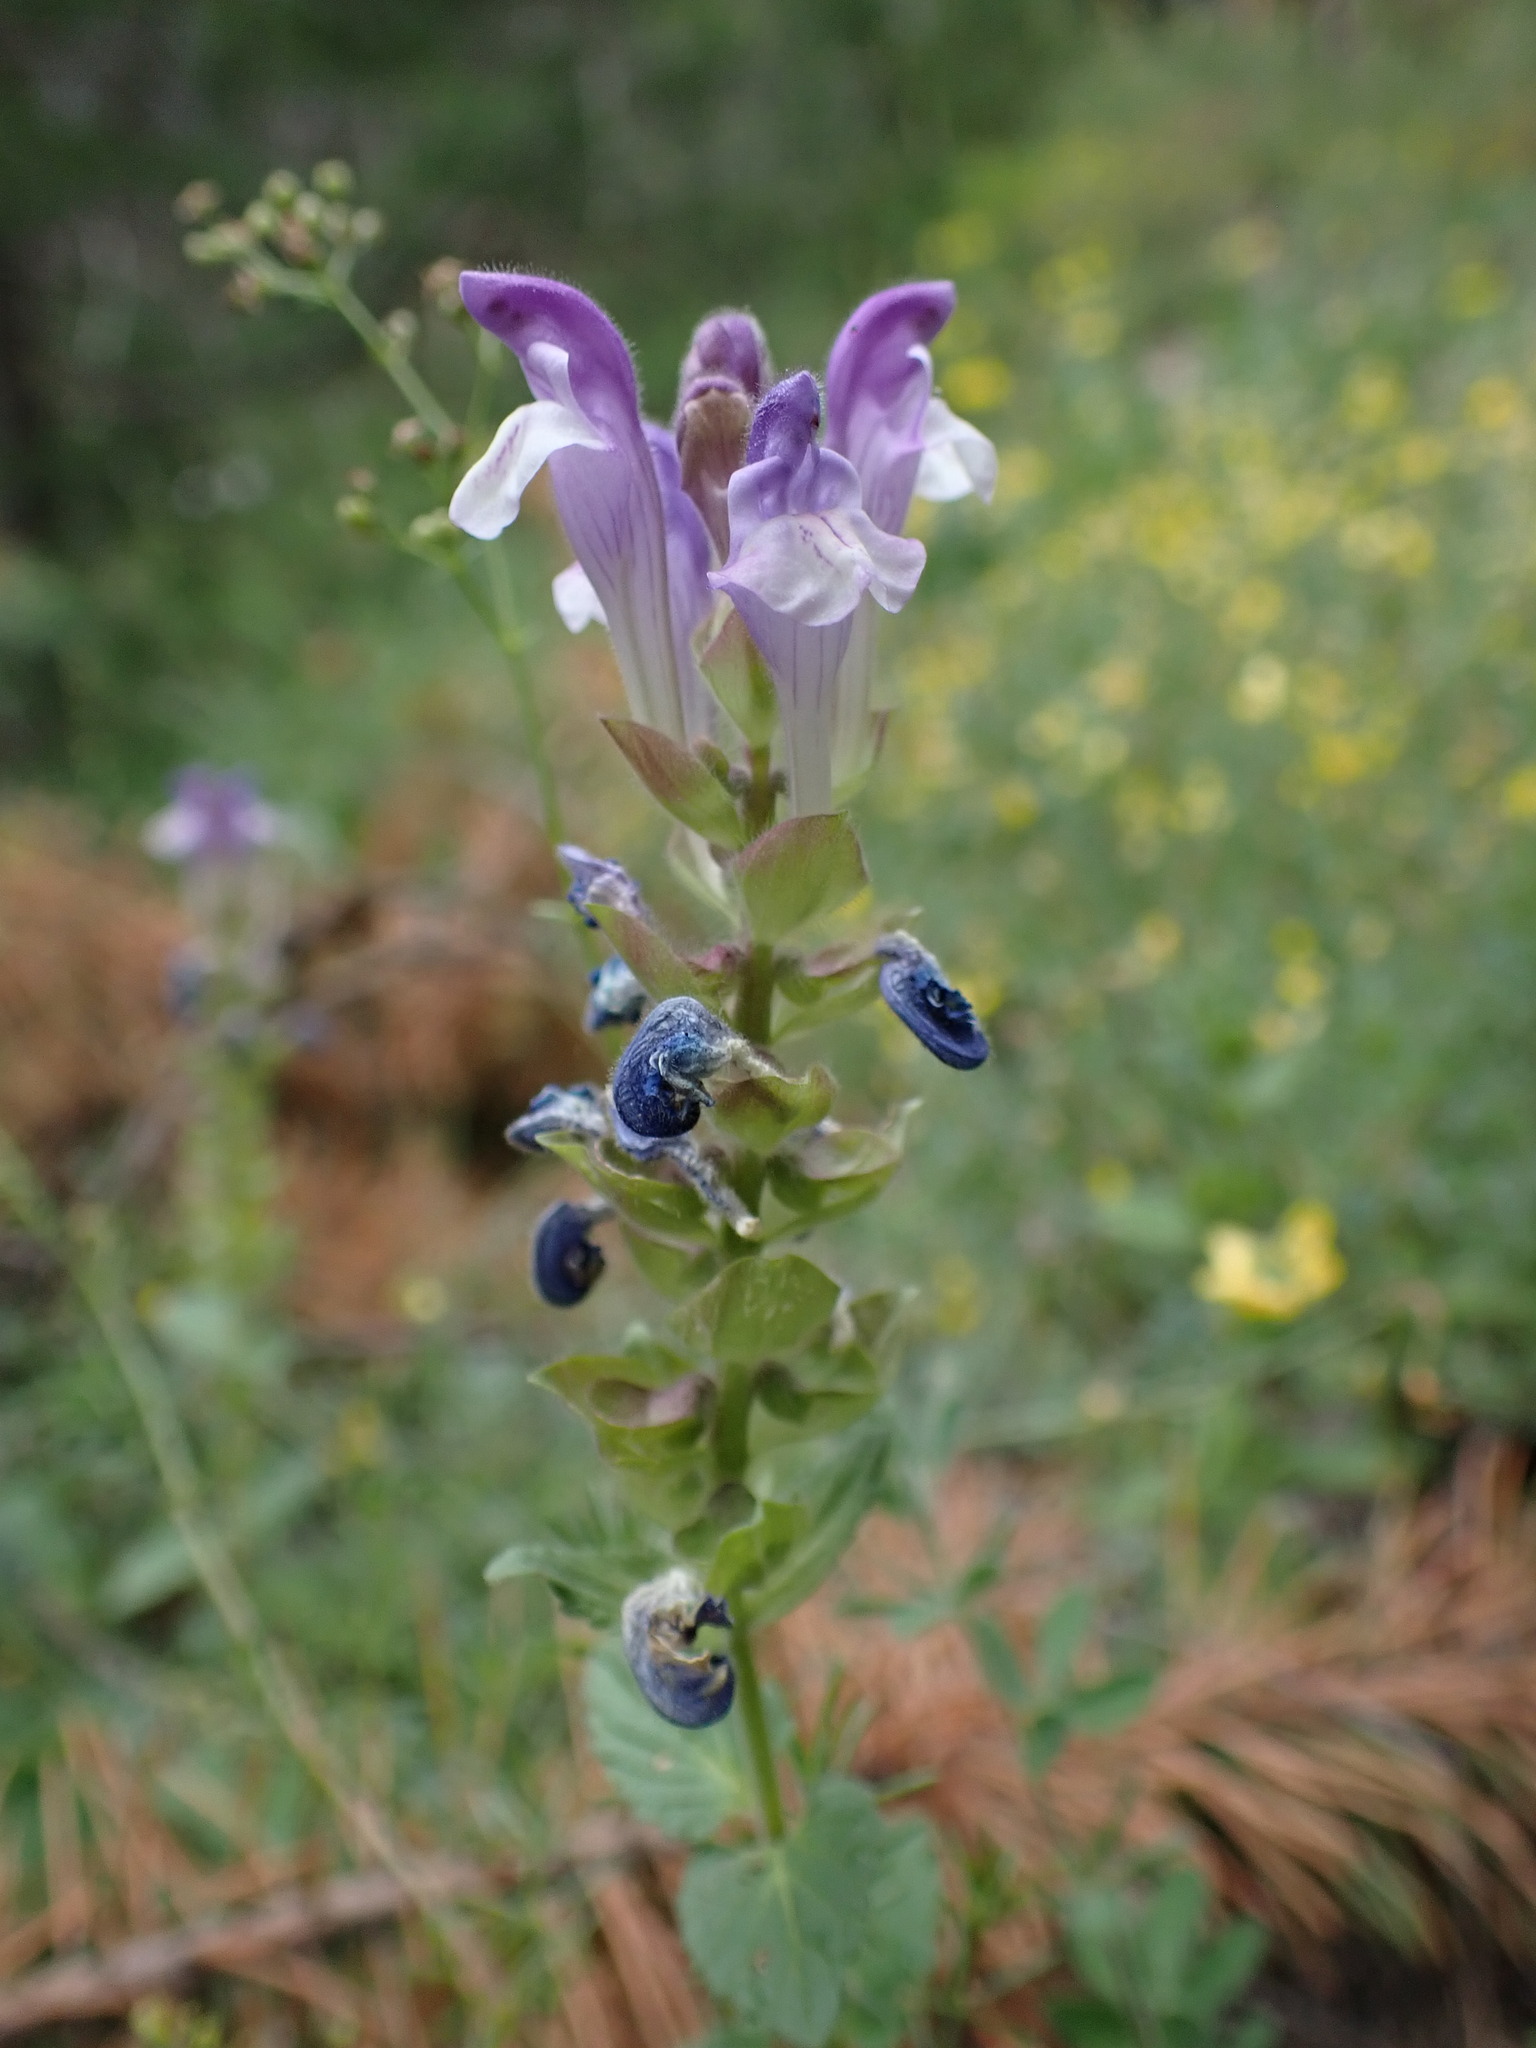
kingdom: Plantae
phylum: Tracheophyta
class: Magnoliopsida
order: Lamiales
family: Lamiaceae
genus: Scutellaria
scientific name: Scutellaria alpina
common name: Alpine scullcap
